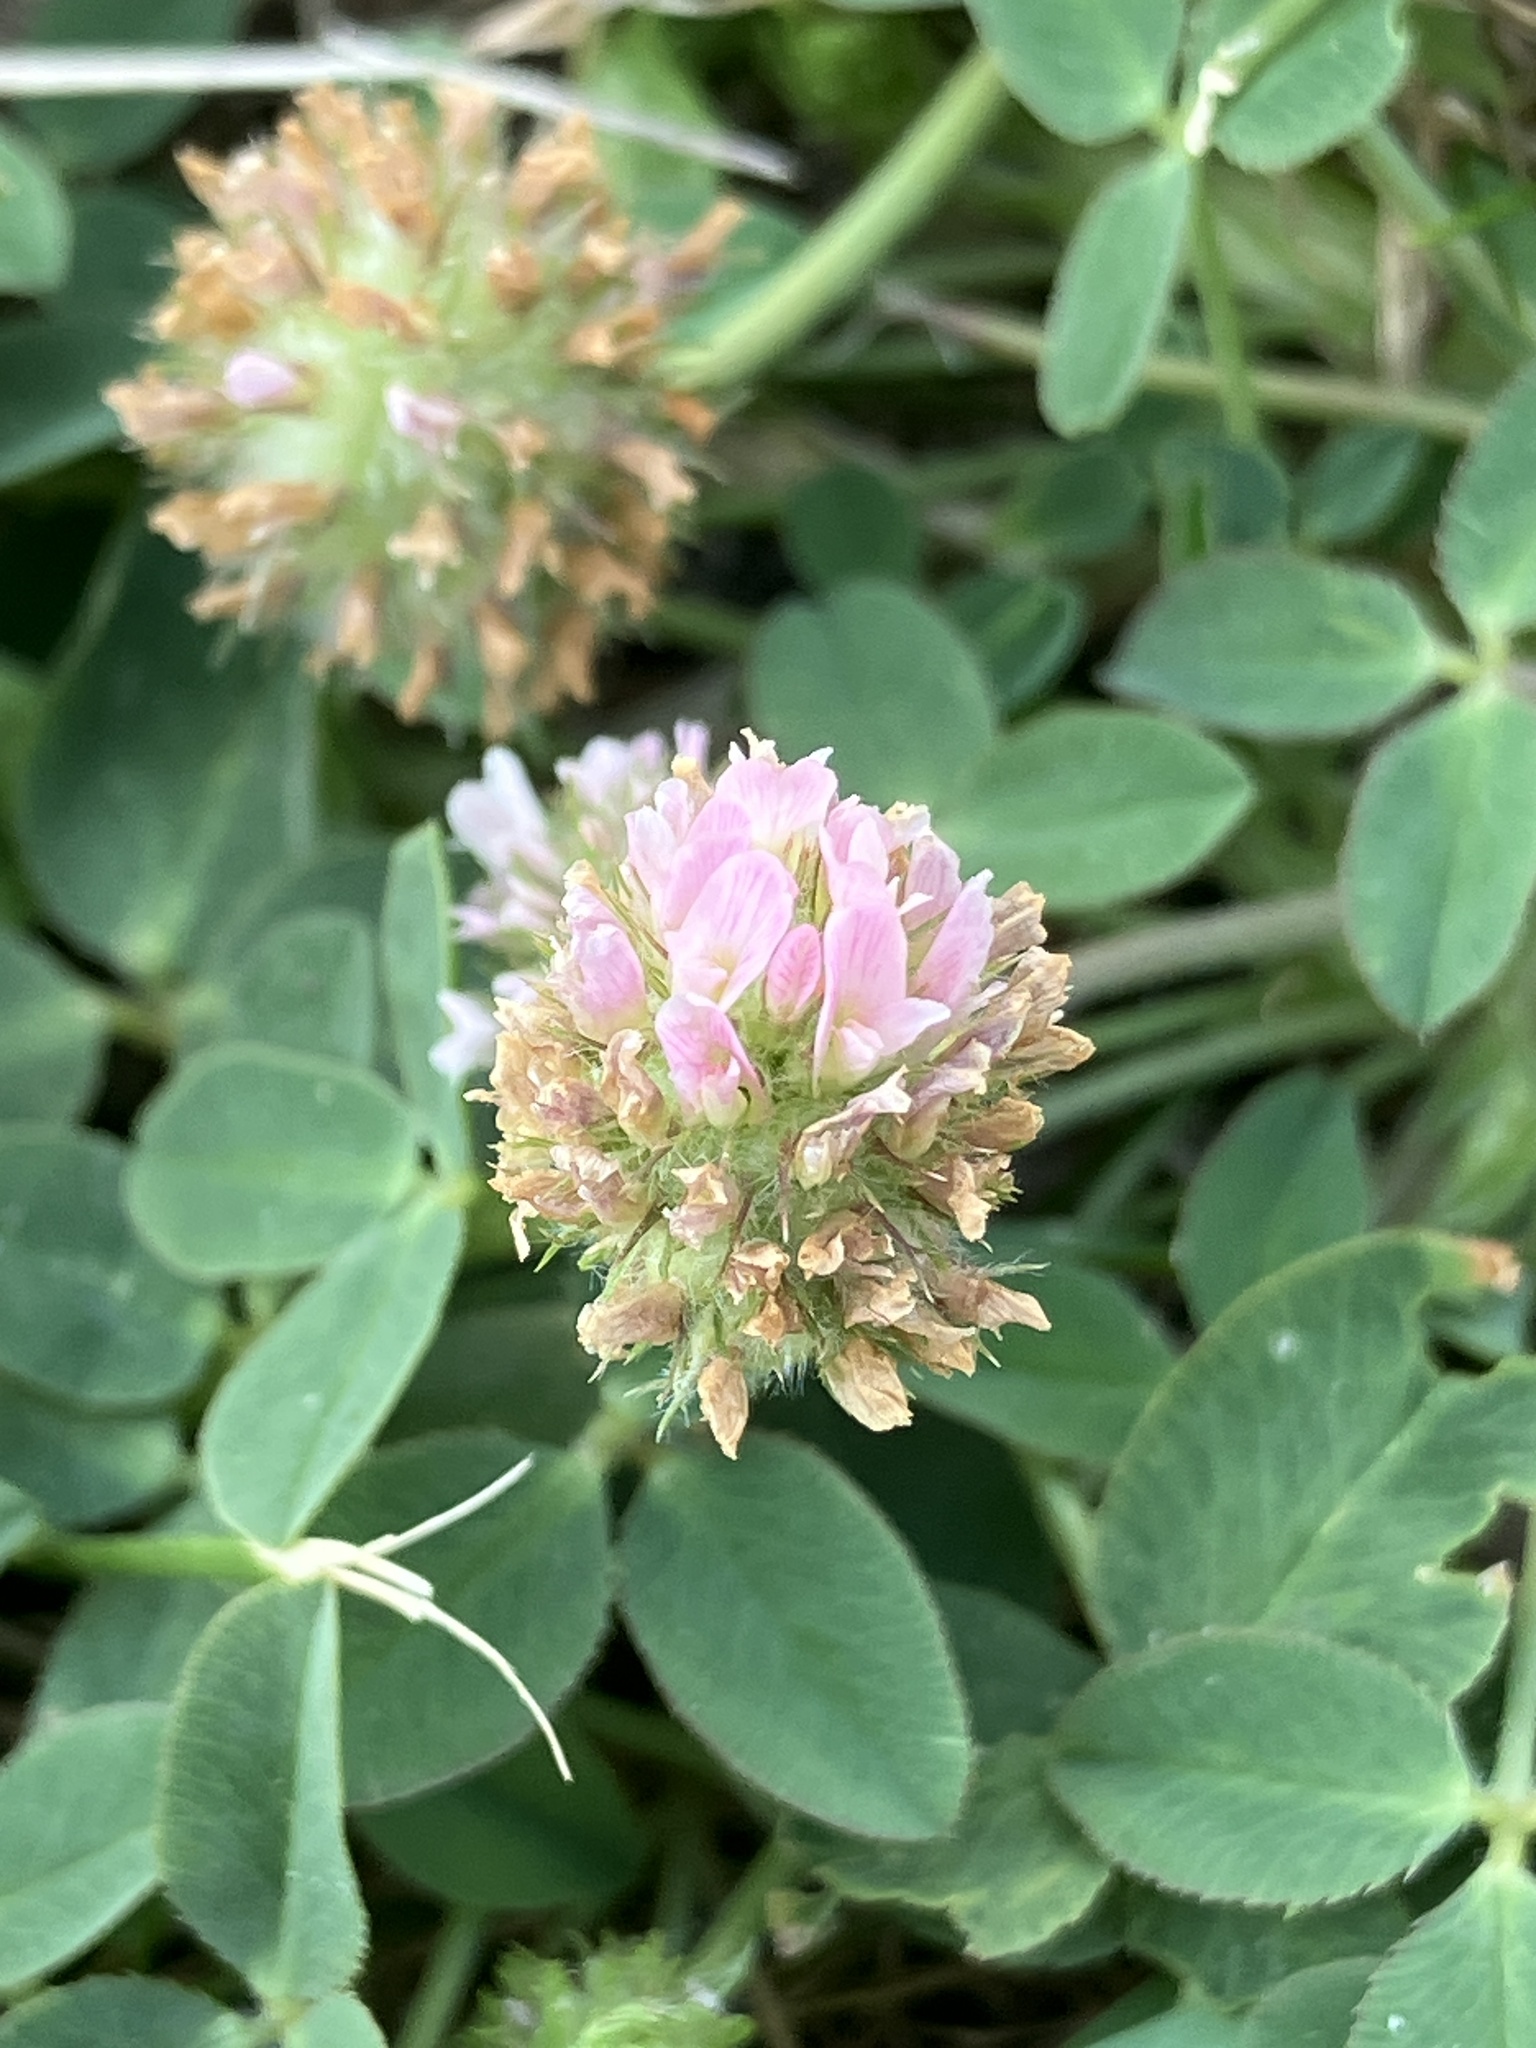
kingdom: Plantae
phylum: Tracheophyta
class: Magnoliopsida
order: Fabales
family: Fabaceae
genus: Trifolium
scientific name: Trifolium fragiferum
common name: Strawberry clover
